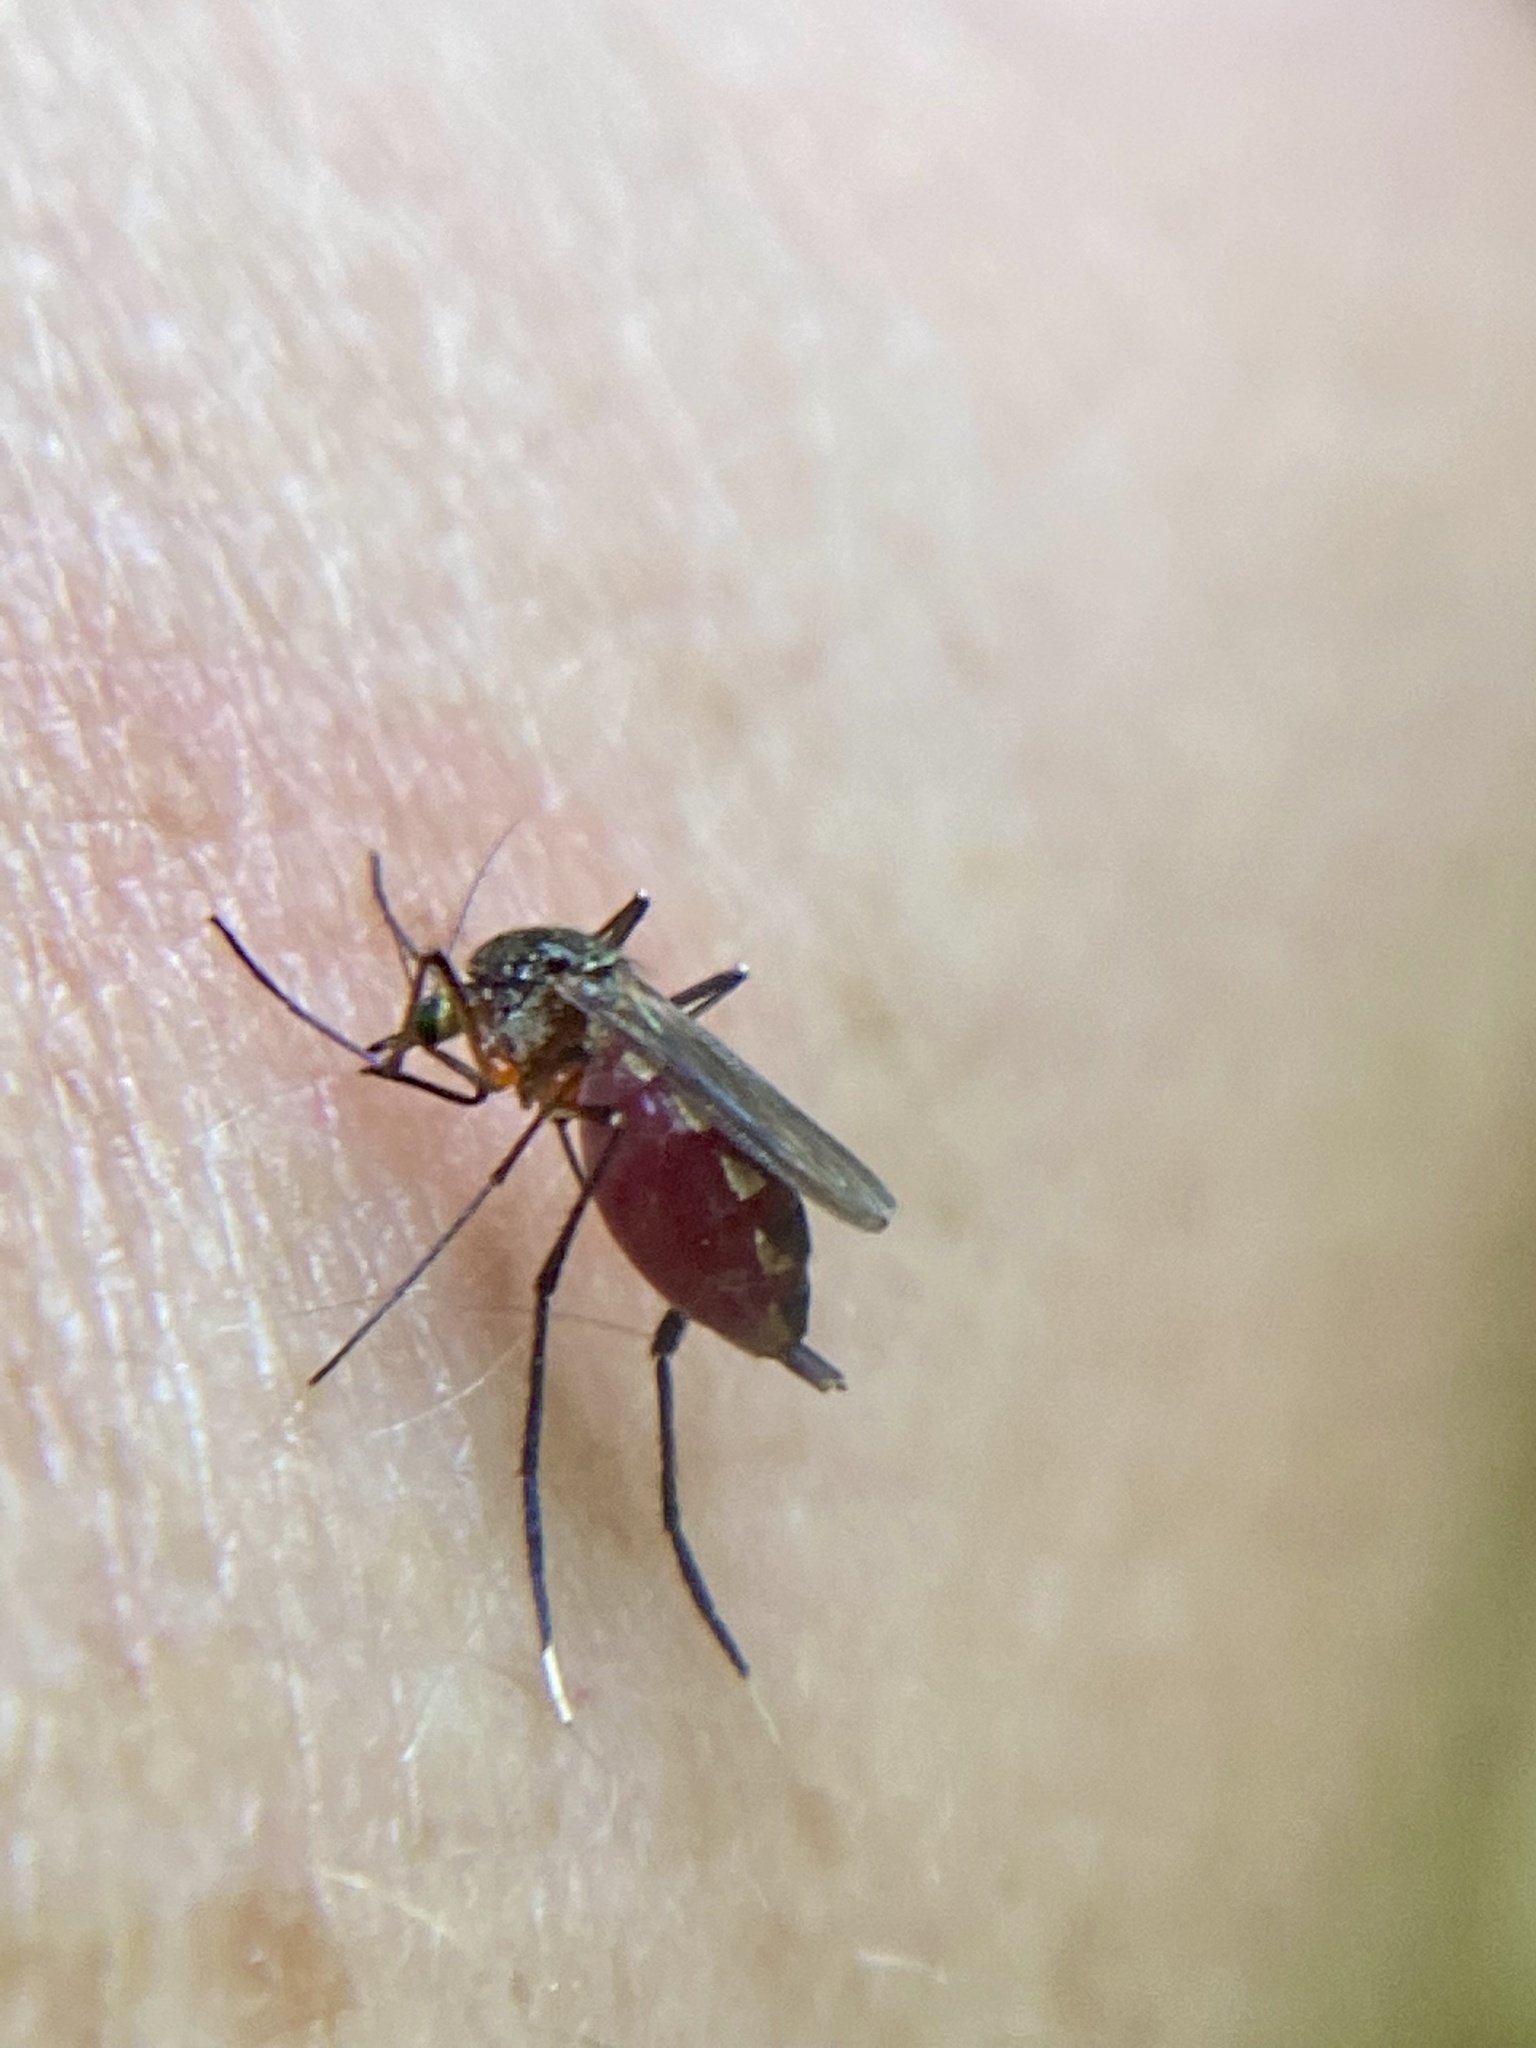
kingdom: Animalia
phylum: Arthropoda
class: Insecta
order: Diptera
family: Culicidae
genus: Psorophora
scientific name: Psorophora ferox
